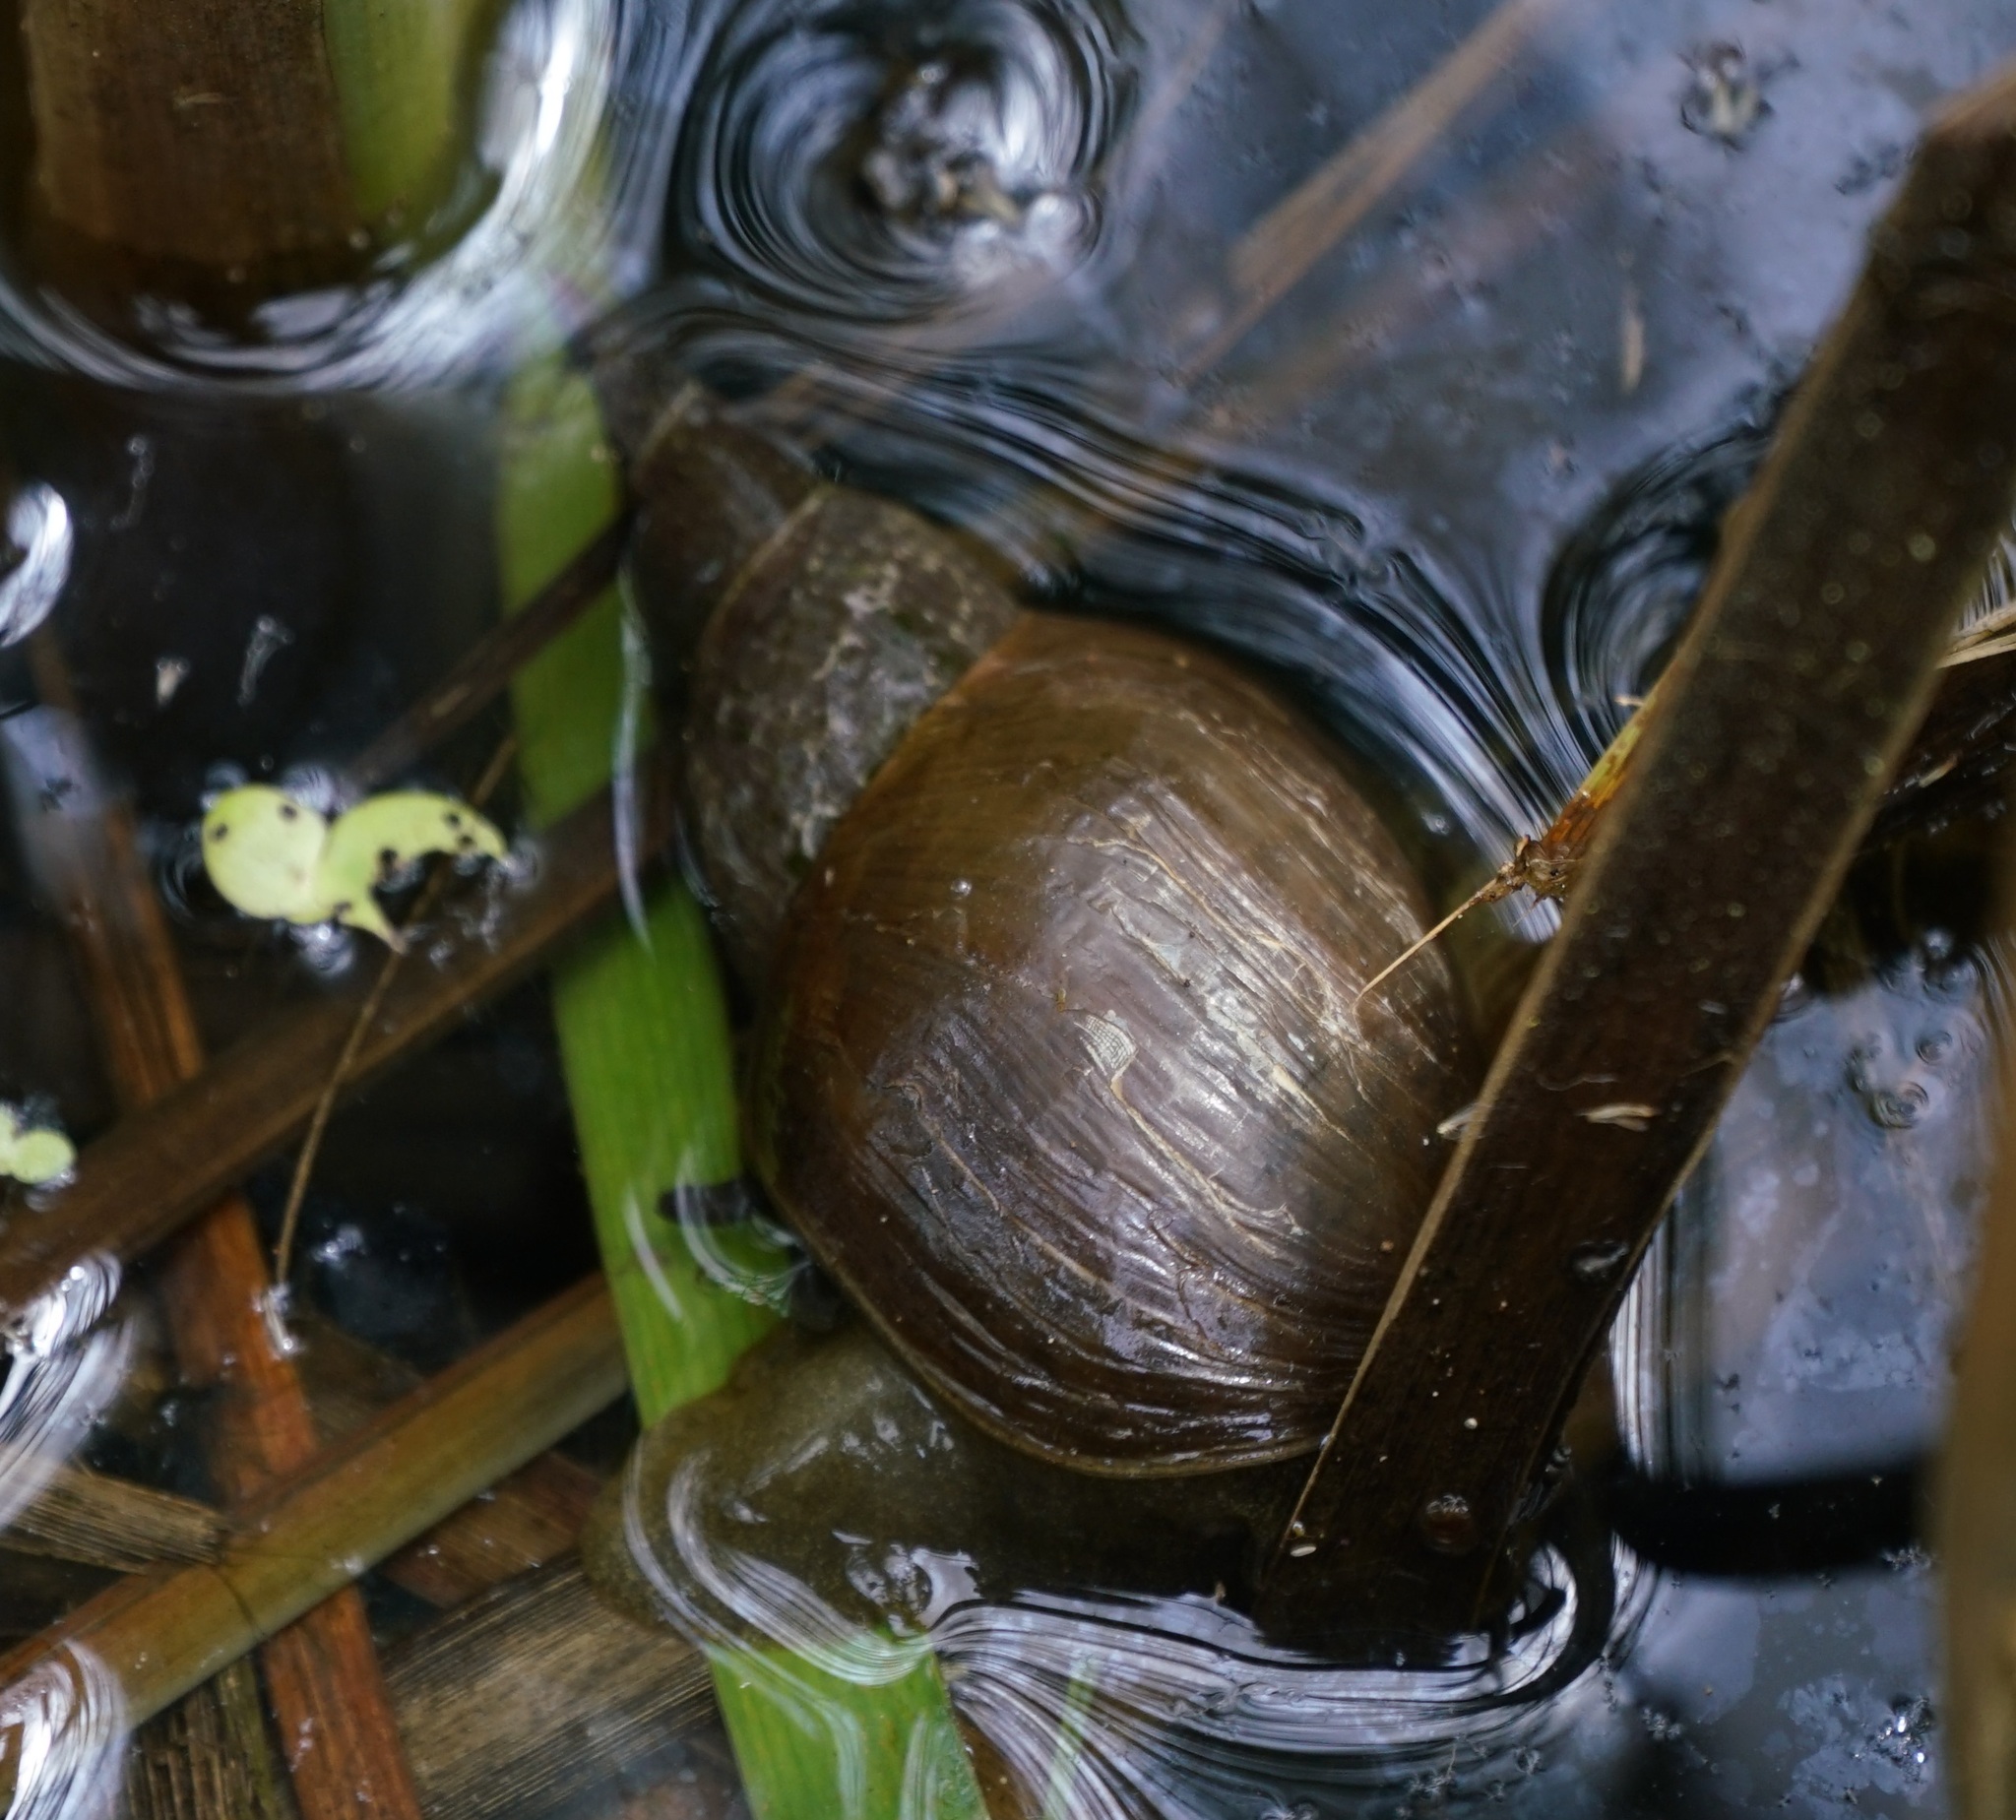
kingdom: Animalia
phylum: Mollusca
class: Gastropoda
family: Lymnaeidae
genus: Lymnaea
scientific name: Lymnaea stagnalis
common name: Great pond snail
